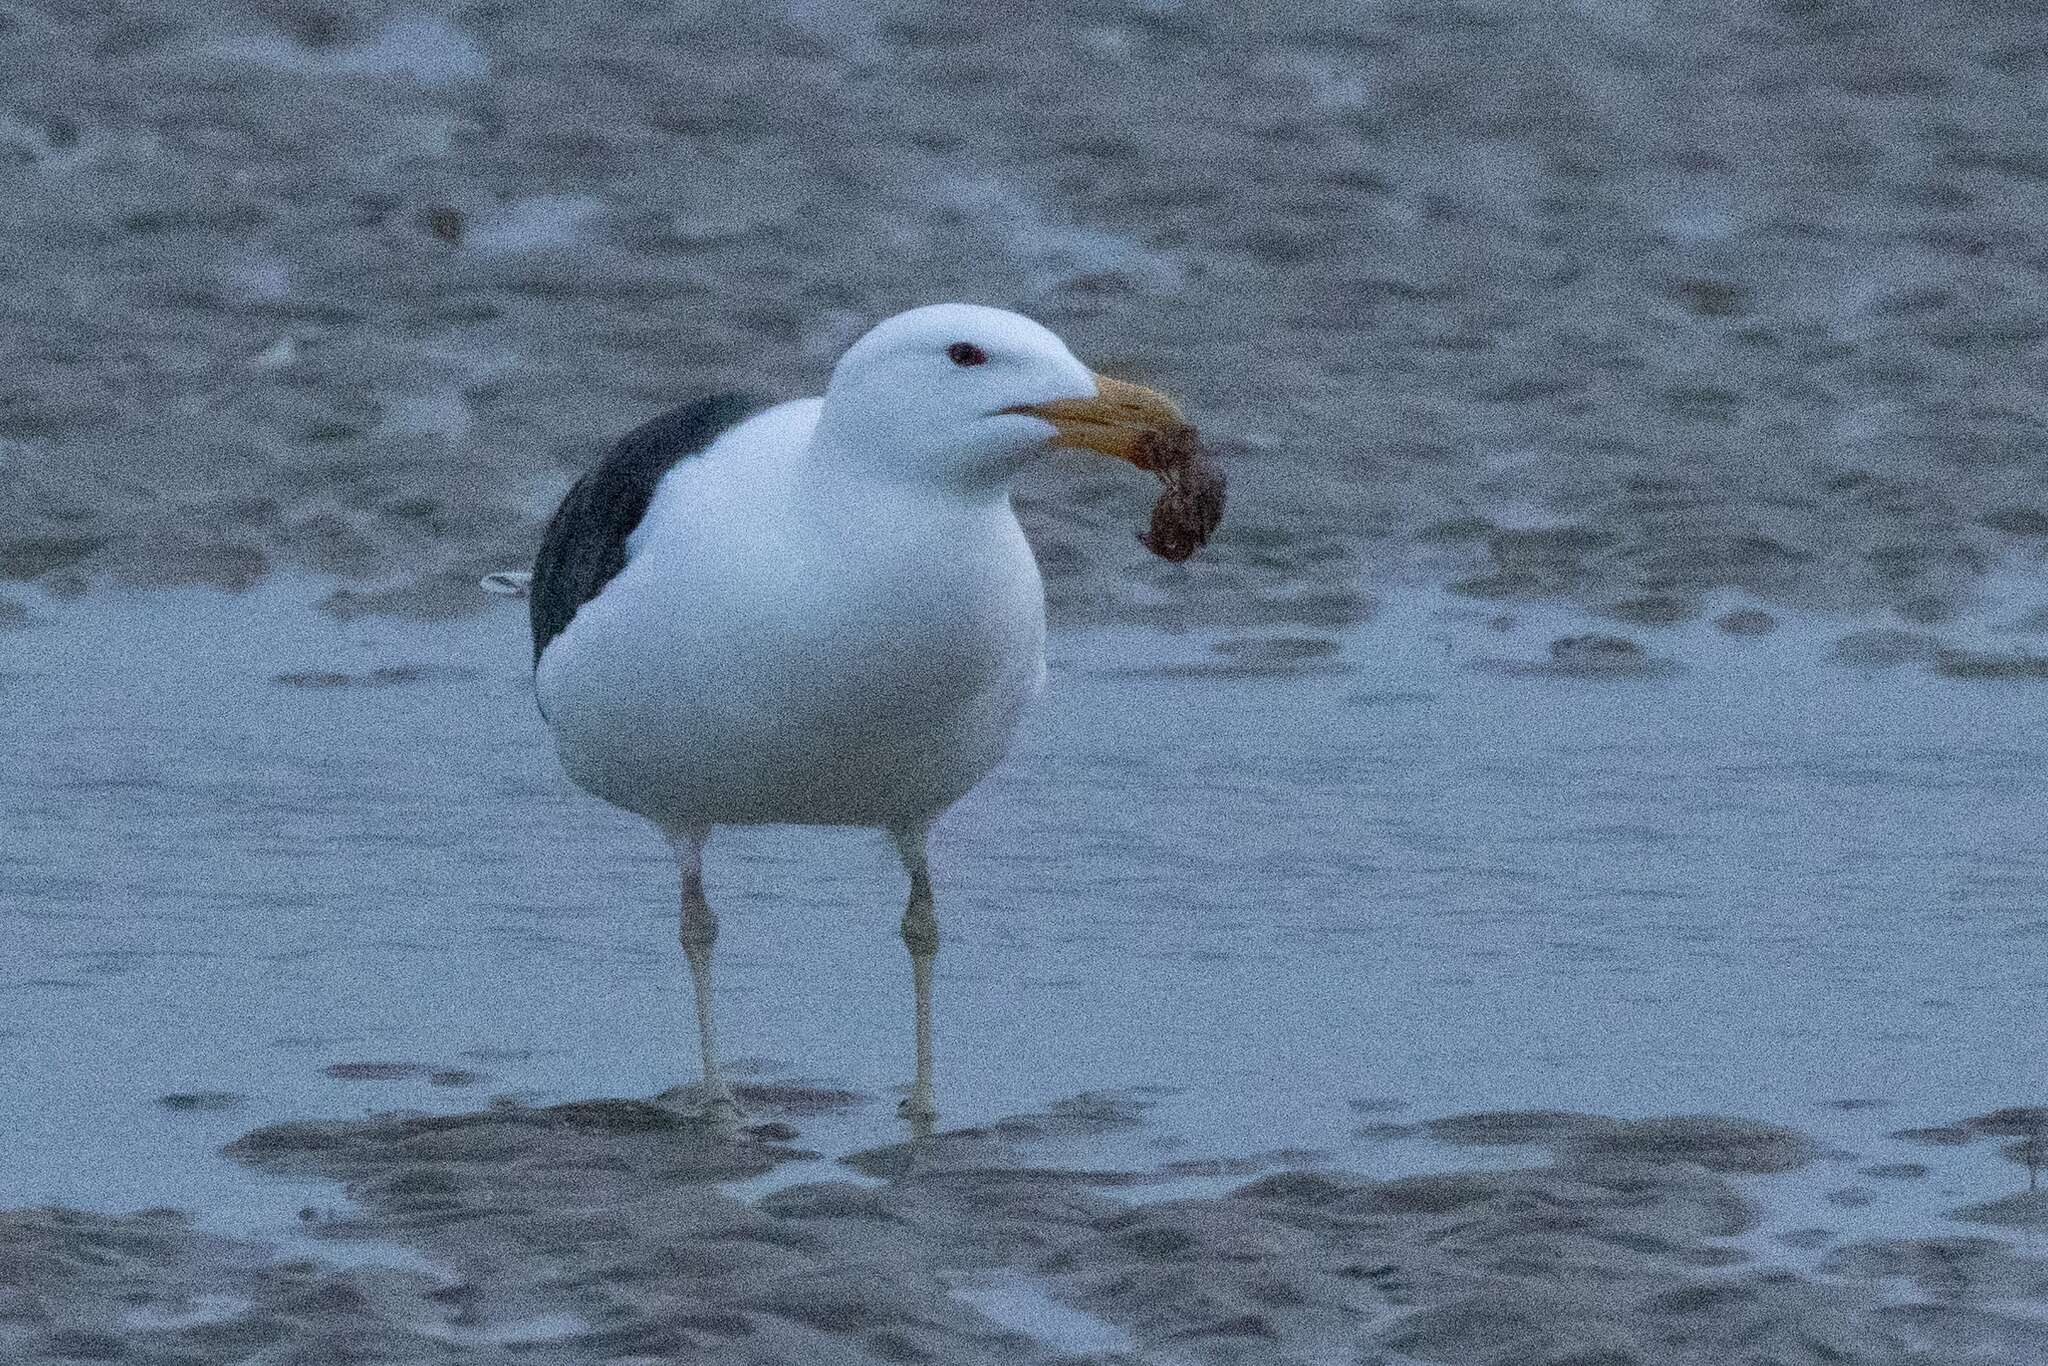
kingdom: Animalia
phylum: Chordata
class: Aves
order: Charadriiformes
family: Laridae
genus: Larus
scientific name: Larus marinus
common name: Great black-backed gull
